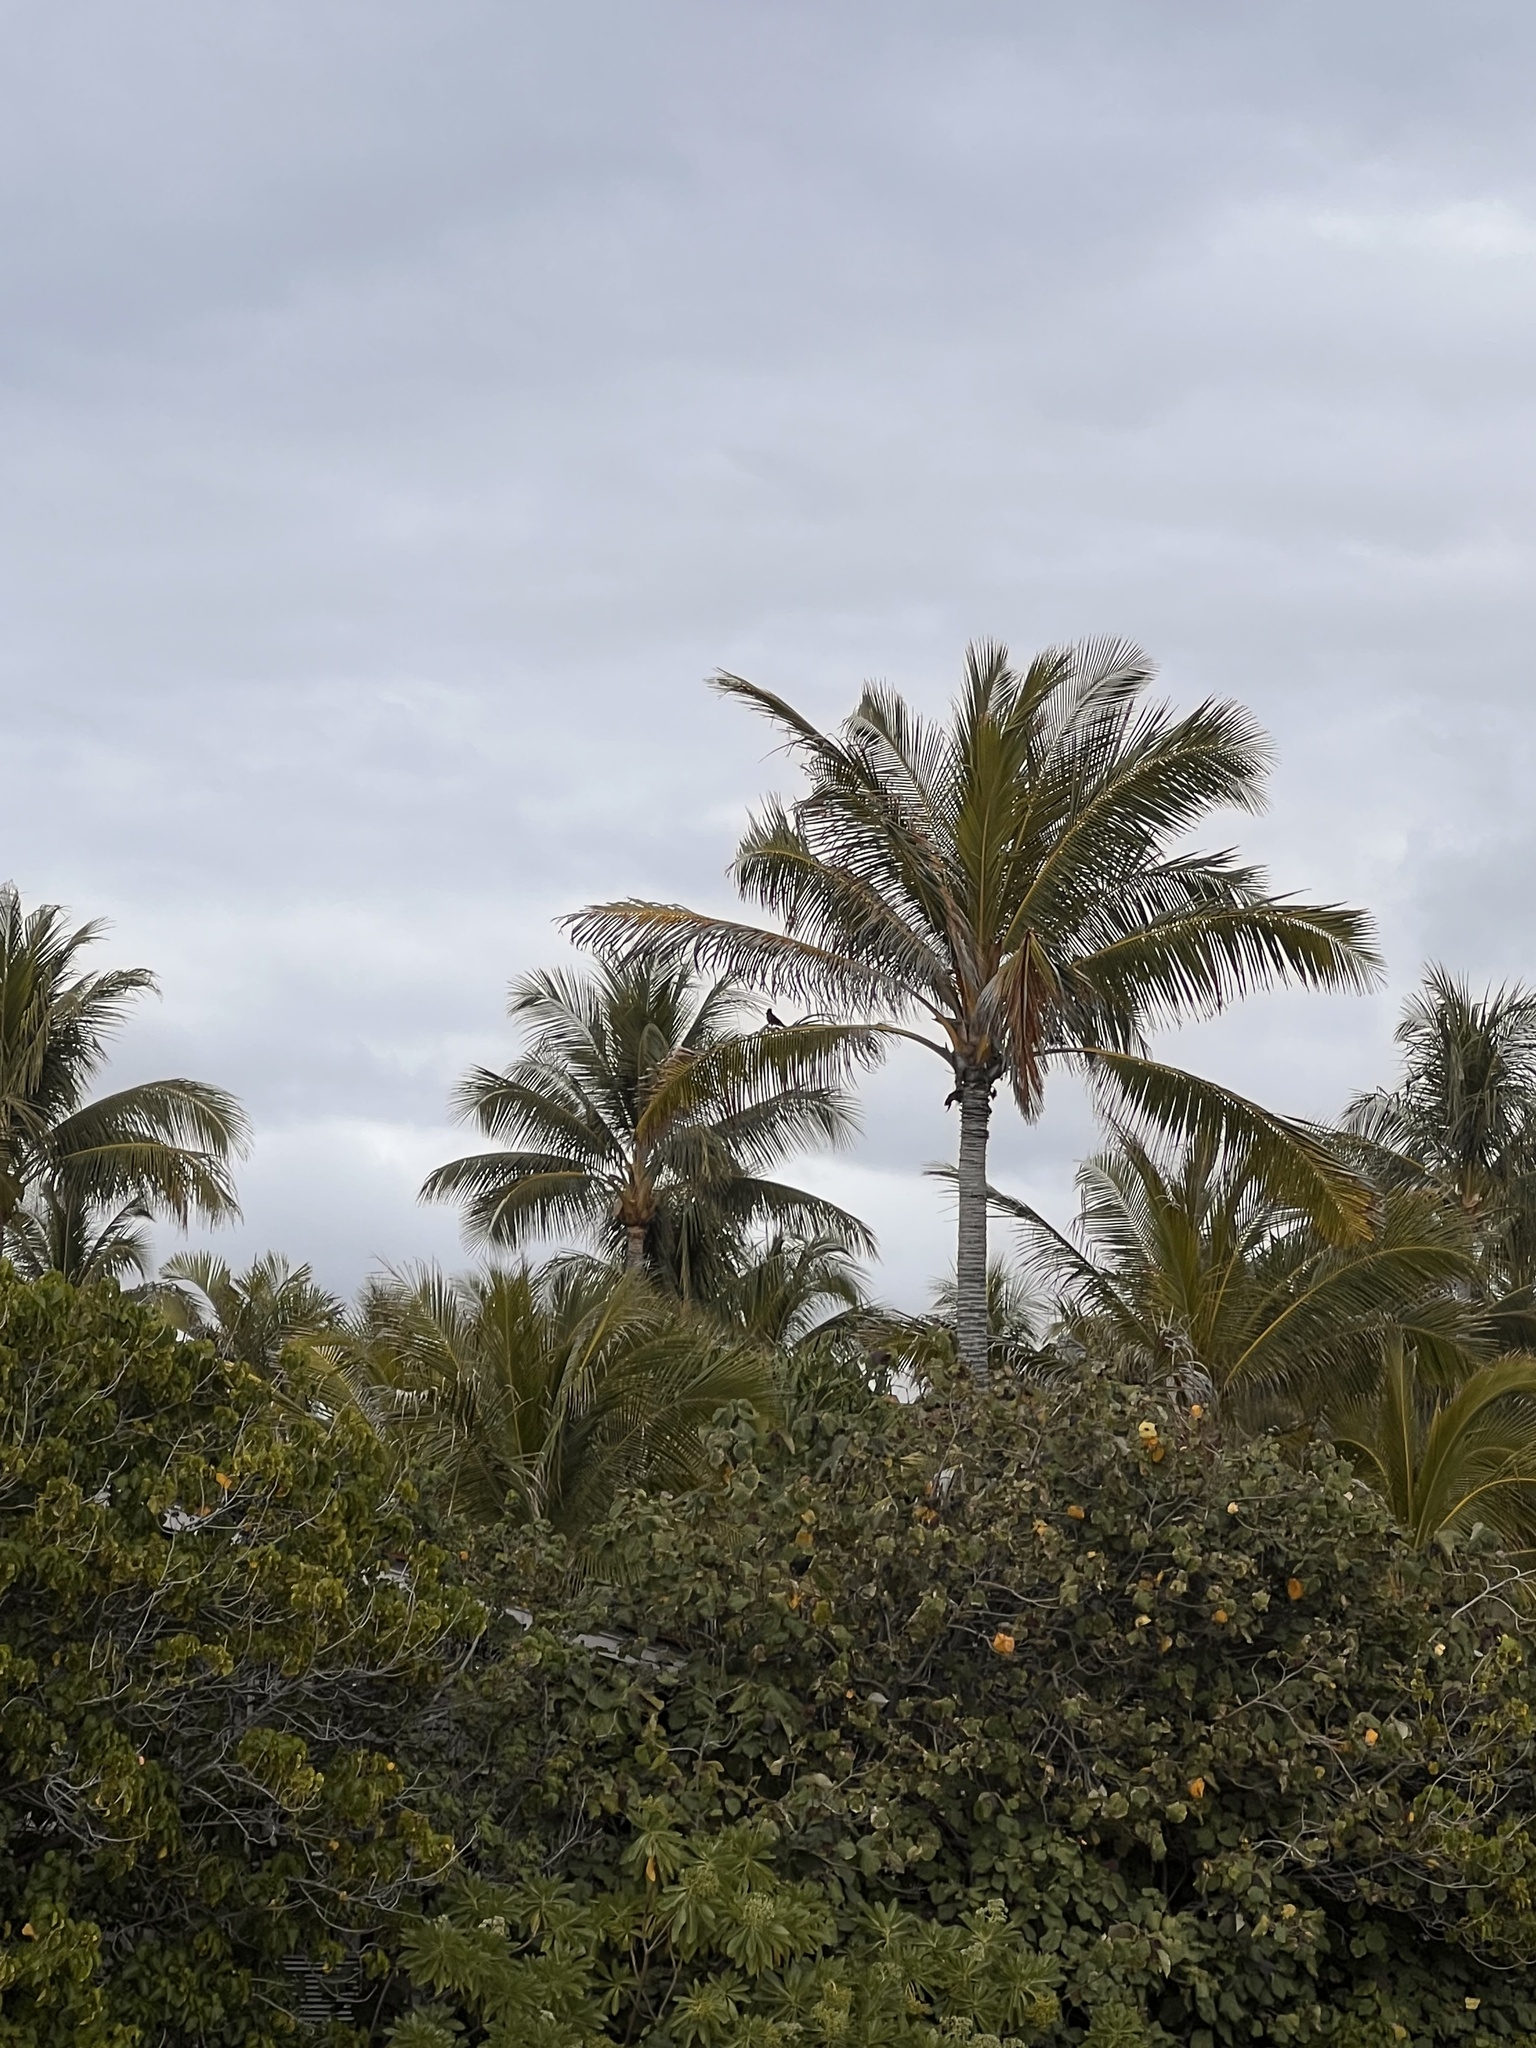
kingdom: Animalia
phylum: Chordata
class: Aves
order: Passeriformes
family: Sturnidae
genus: Acridotheres
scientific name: Acridotheres tristis
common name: Common myna
